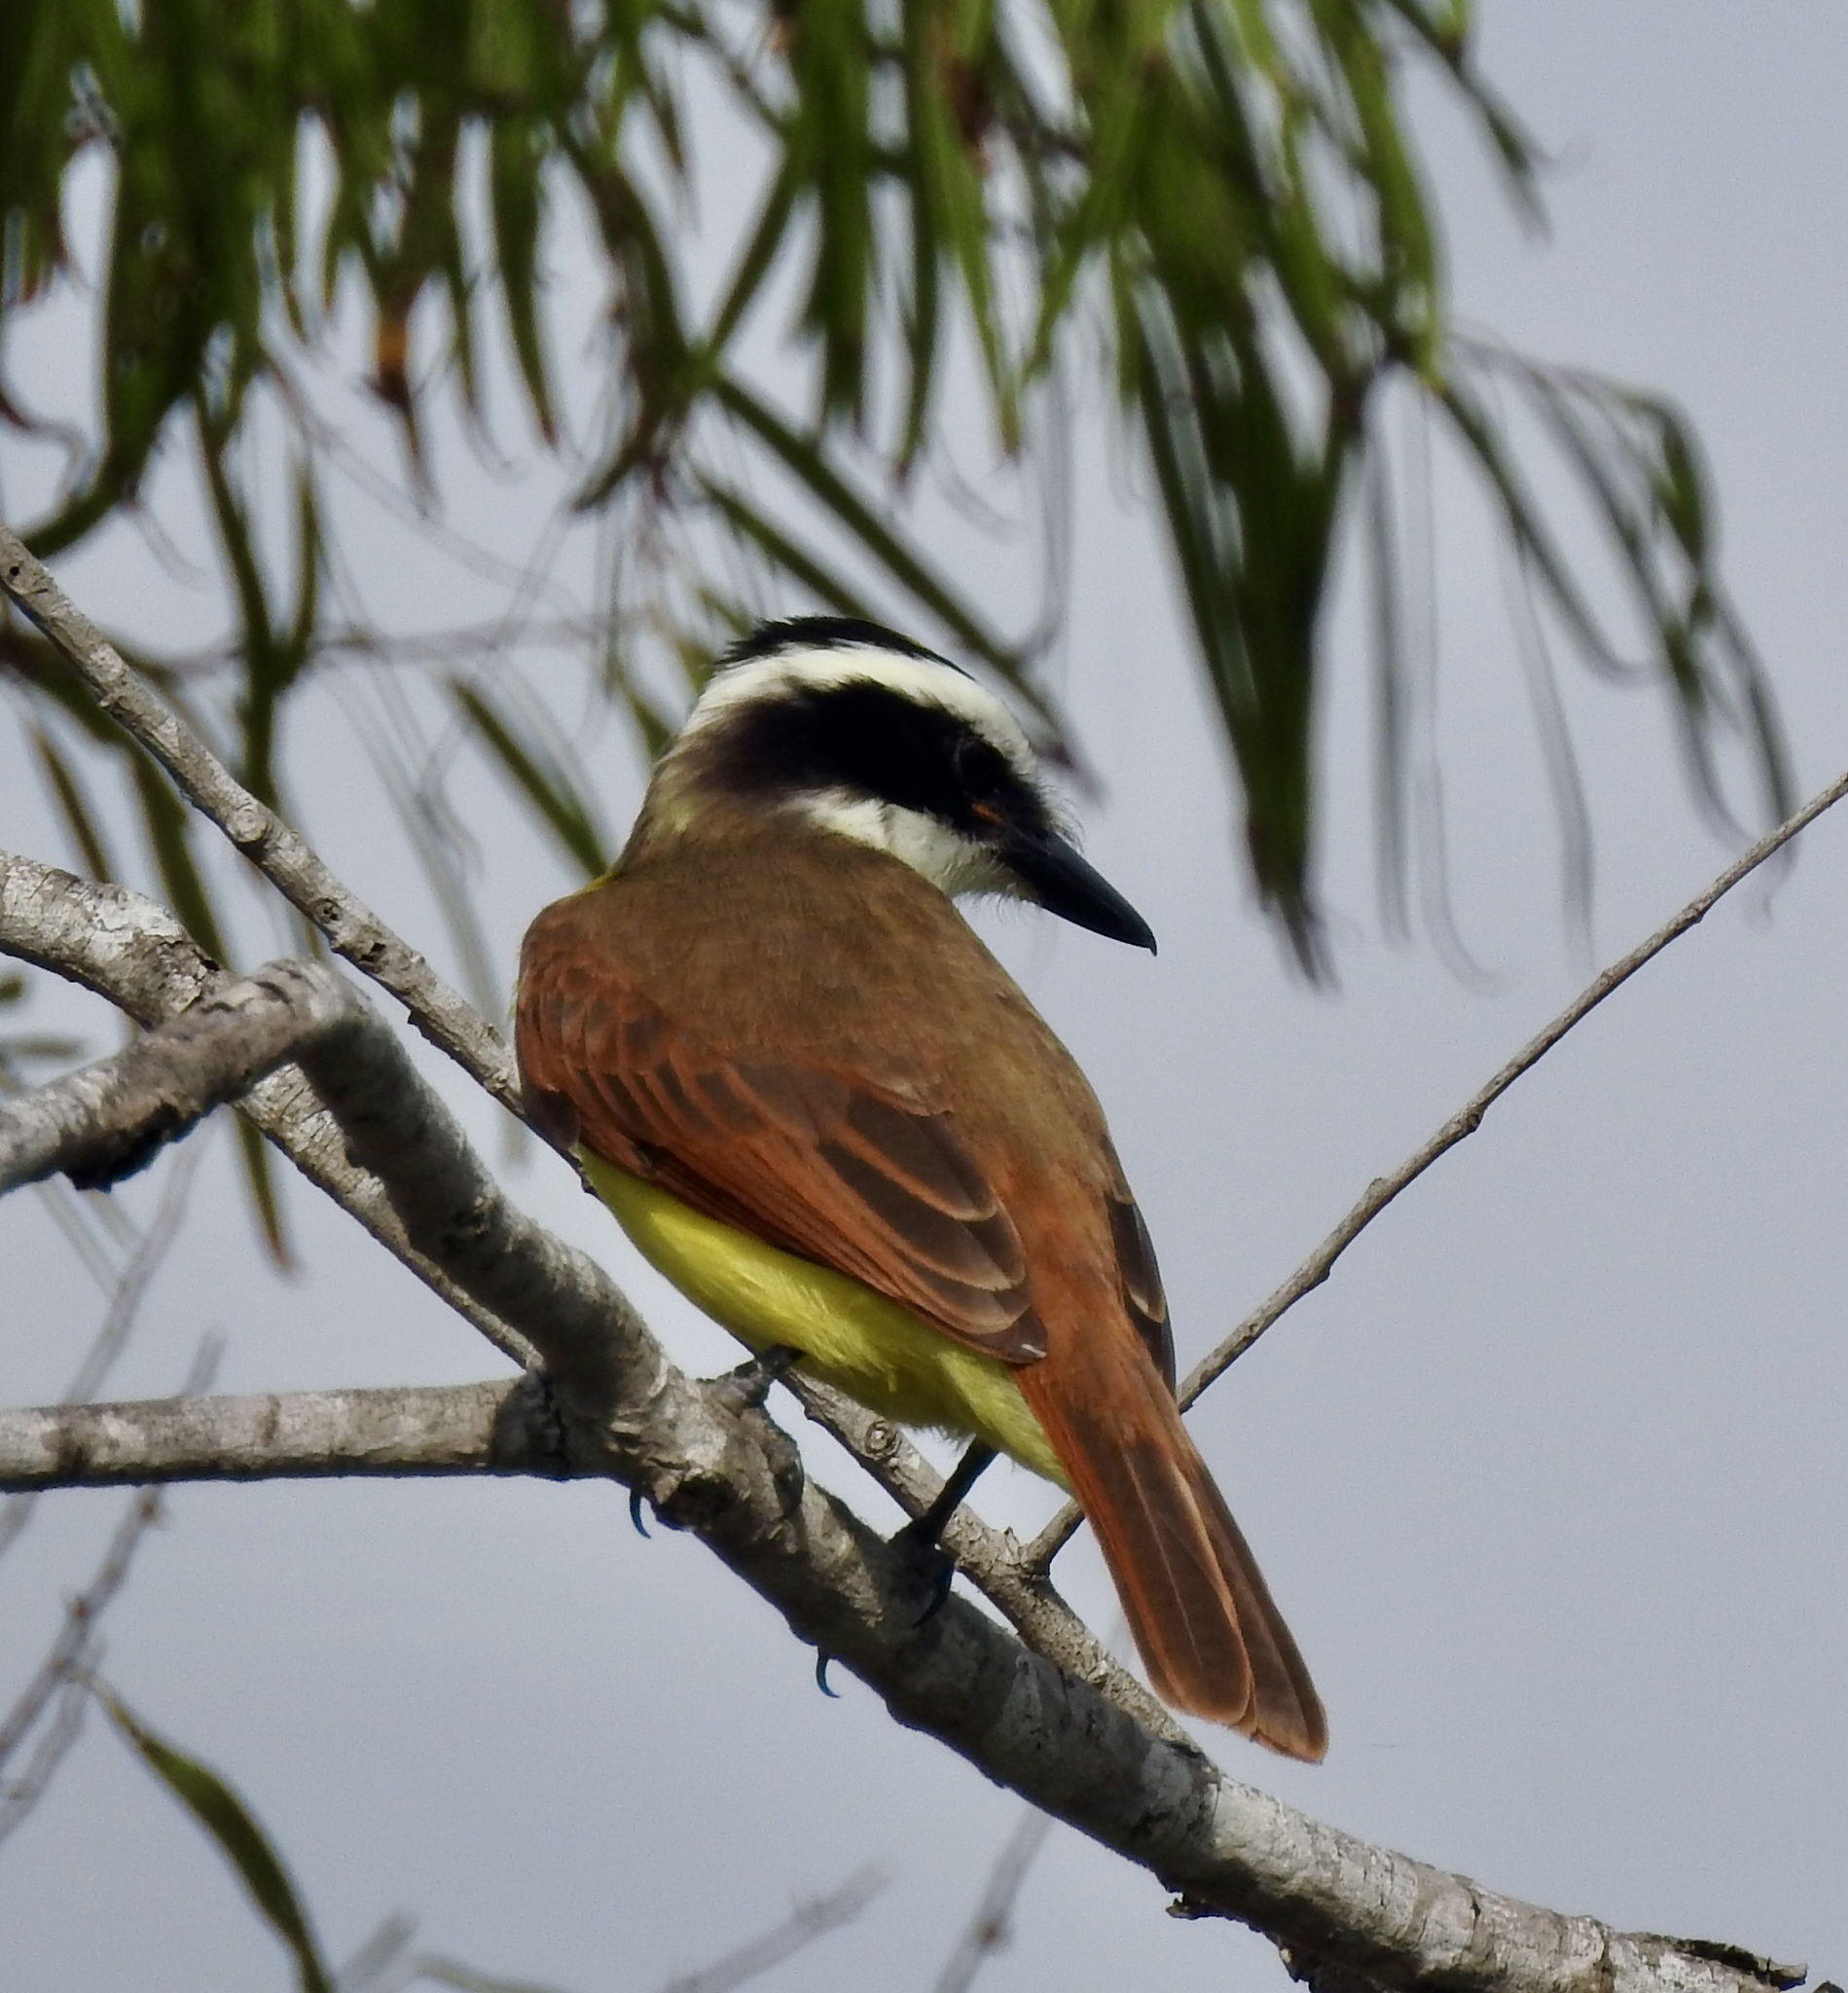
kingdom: Animalia
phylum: Chordata
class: Aves
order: Passeriformes
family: Tyrannidae
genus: Pitangus
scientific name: Pitangus sulphuratus
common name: Great kiskadee
